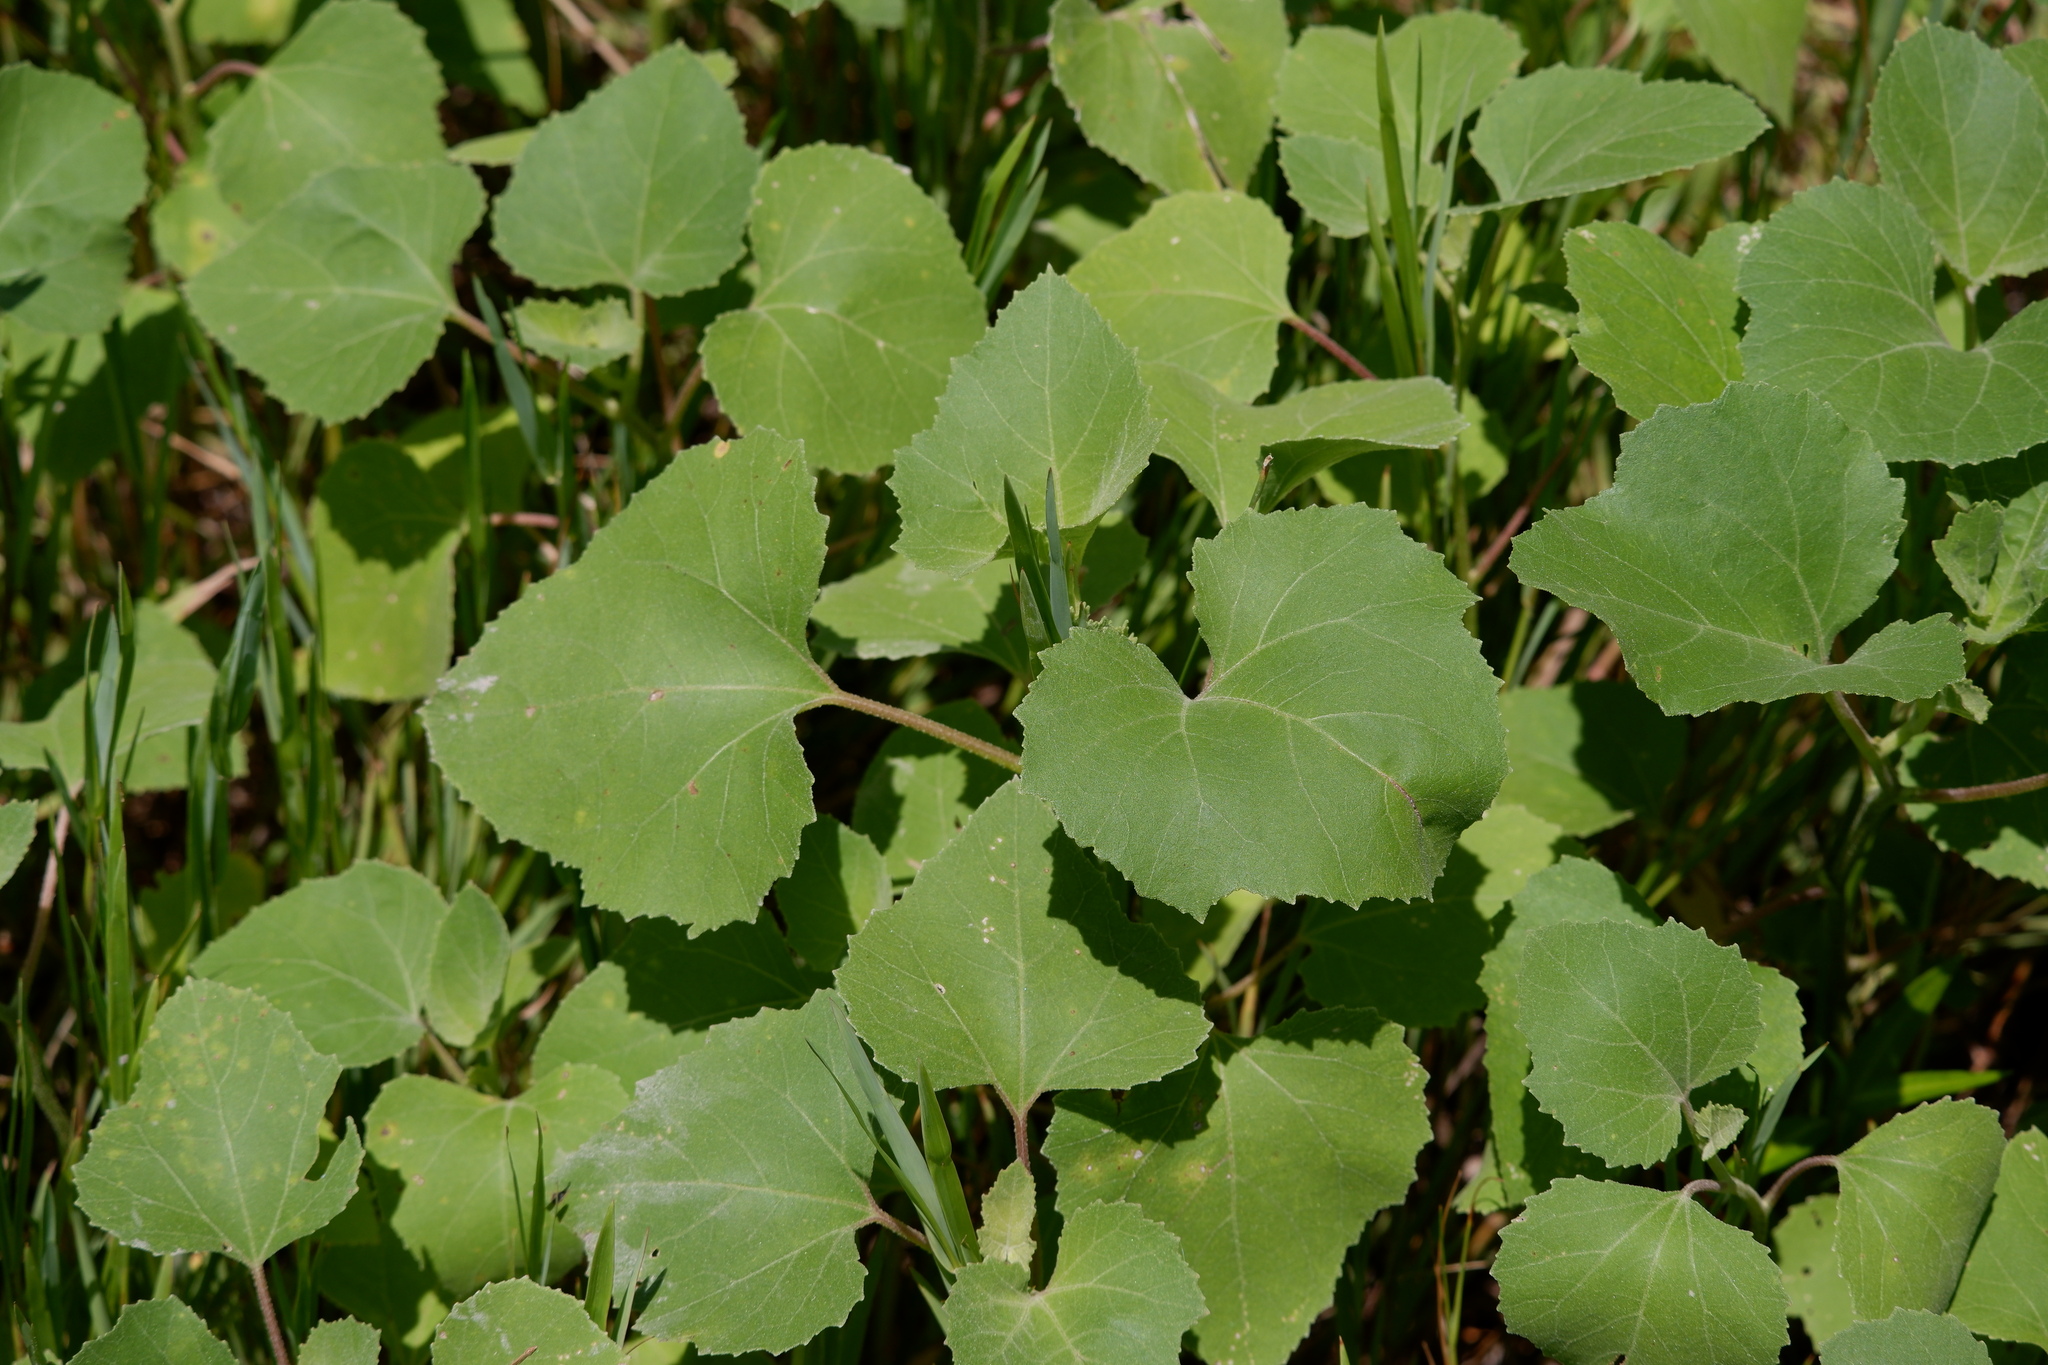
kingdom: Plantae
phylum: Tracheophyta
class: Magnoliopsida
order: Asterales
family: Asteraceae
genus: Xanthium
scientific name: Xanthium strumarium
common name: Rough cocklebur
